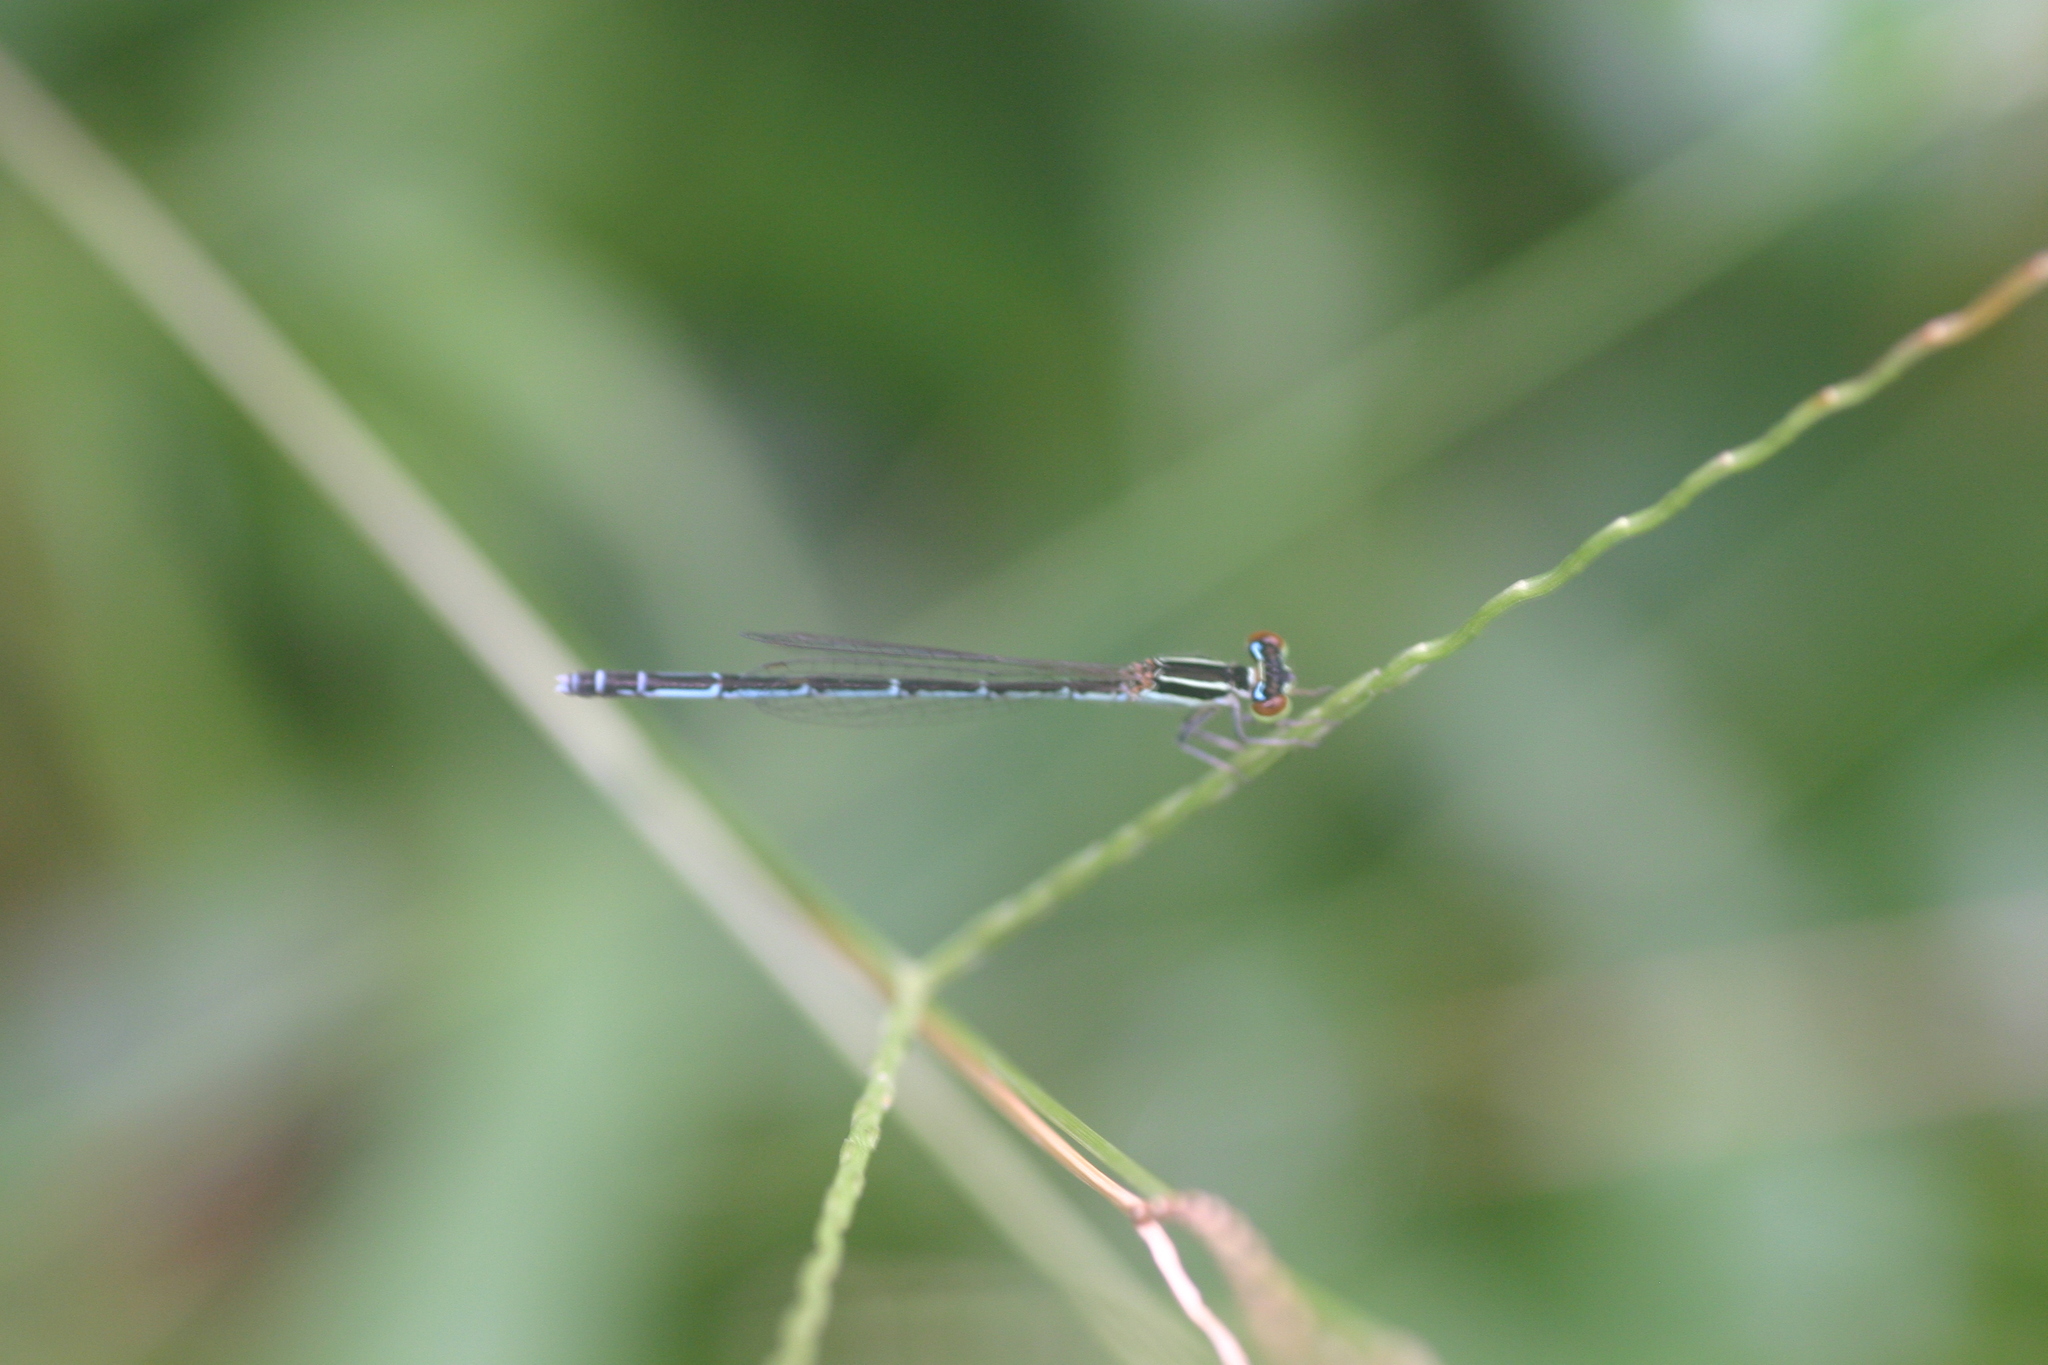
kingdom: Animalia
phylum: Arthropoda
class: Insecta
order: Odonata
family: Coenagrionidae
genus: Agriocnemis
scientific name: Agriocnemis pieris
